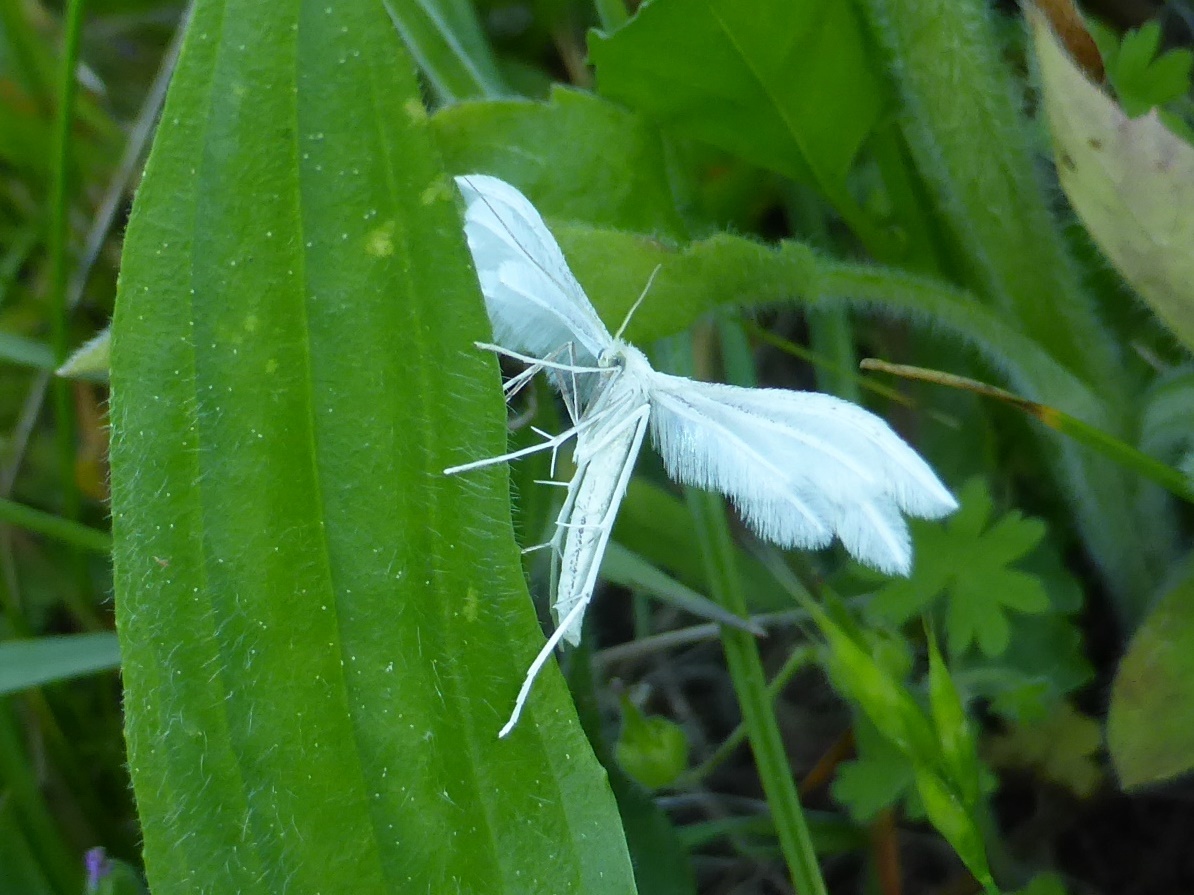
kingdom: Animalia
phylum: Arthropoda
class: Insecta
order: Lepidoptera
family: Pterophoridae
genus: Pterophorus
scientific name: Pterophorus pentadactyla
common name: White plume moth
